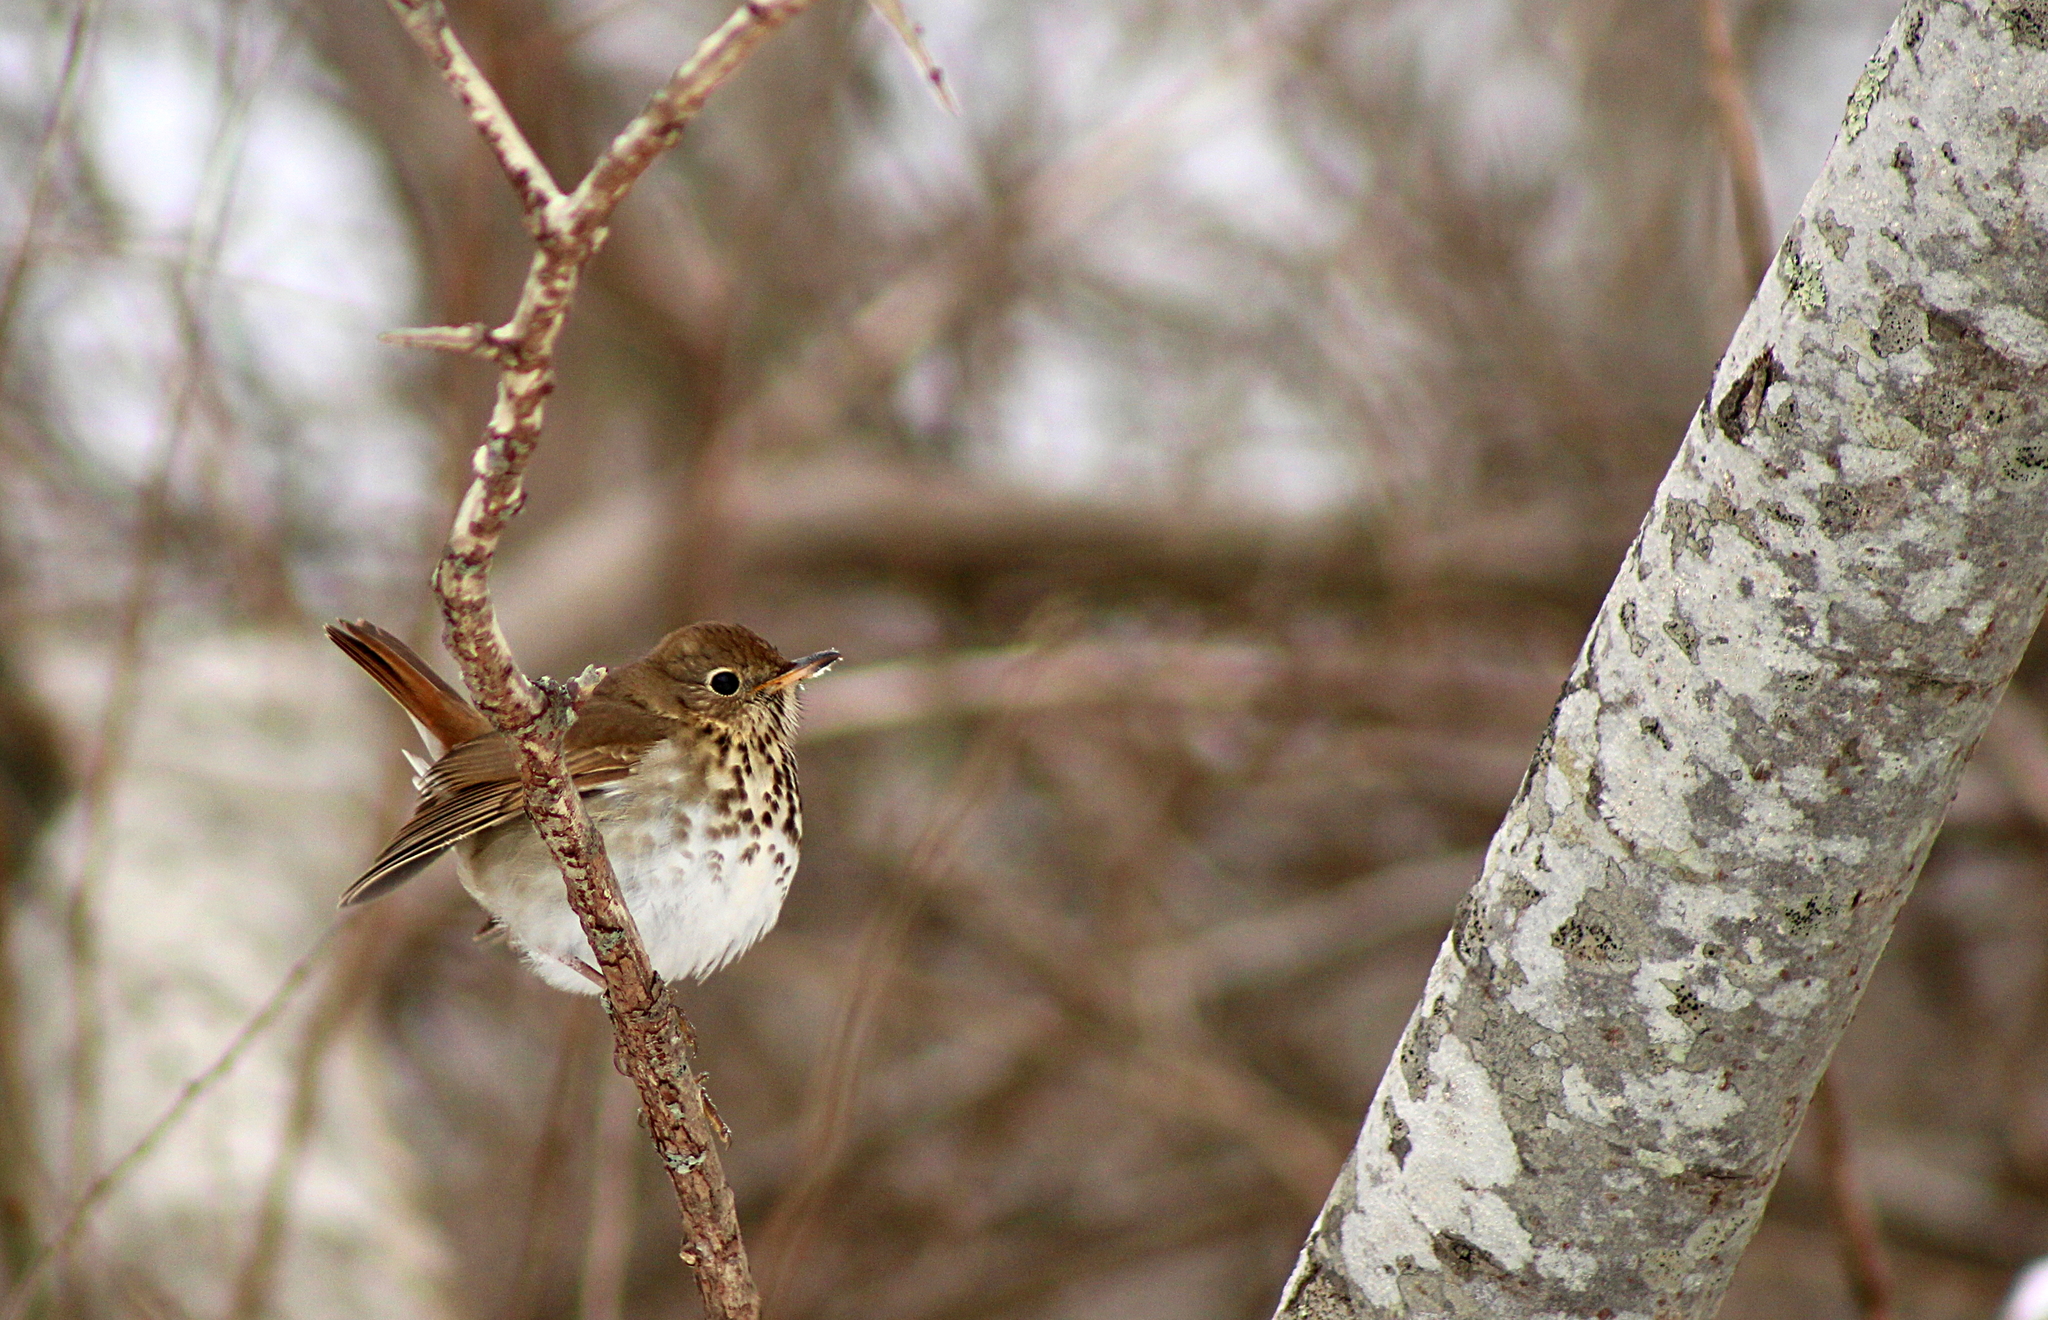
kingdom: Animalia
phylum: Chordata
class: Aves
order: Passeriformes
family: Turdidae
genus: Catharus
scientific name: Catharus guttatus
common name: Hermit thrush
